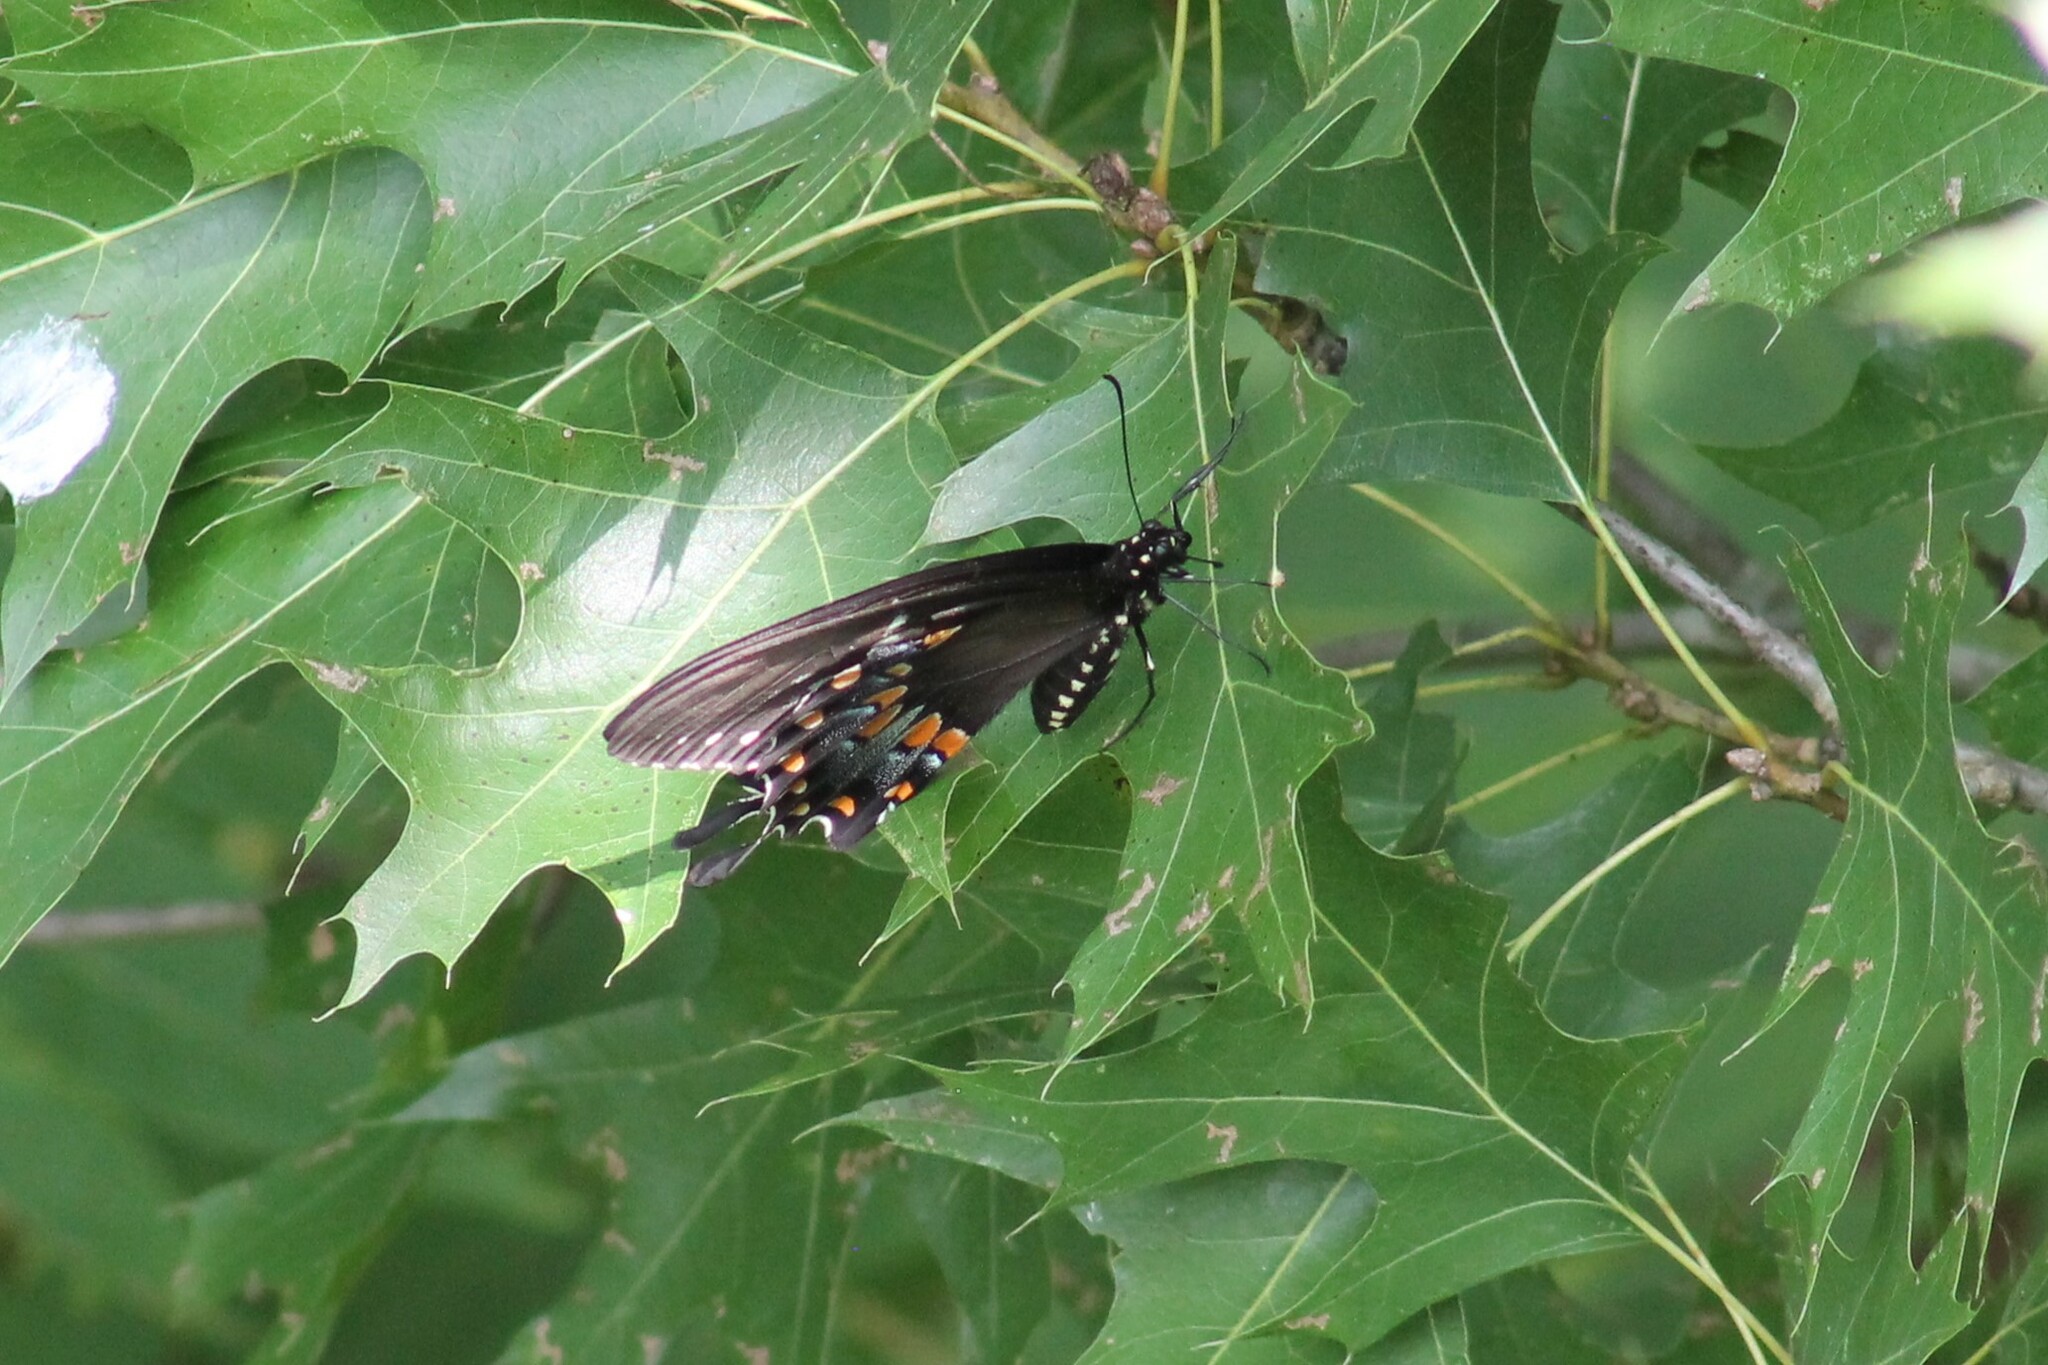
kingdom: Animalia
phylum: Arthropoda
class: Insecta
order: Lepidoptera
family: Papilionidae
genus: Papilio
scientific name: Papilio troilus
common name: Spicebush swallowtail
